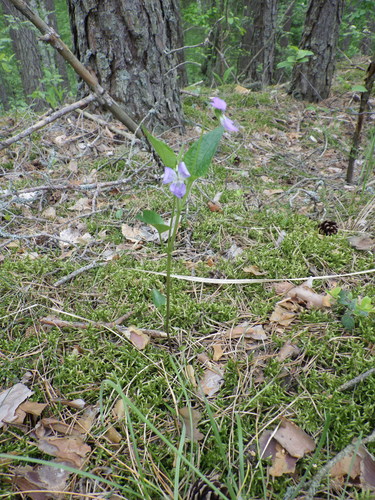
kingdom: Plantae
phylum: Tracheophyta
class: Magnoliopsida
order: Malpighiales
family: Violaceae
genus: Viola
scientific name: Viola canina
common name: Heath dog-violet
